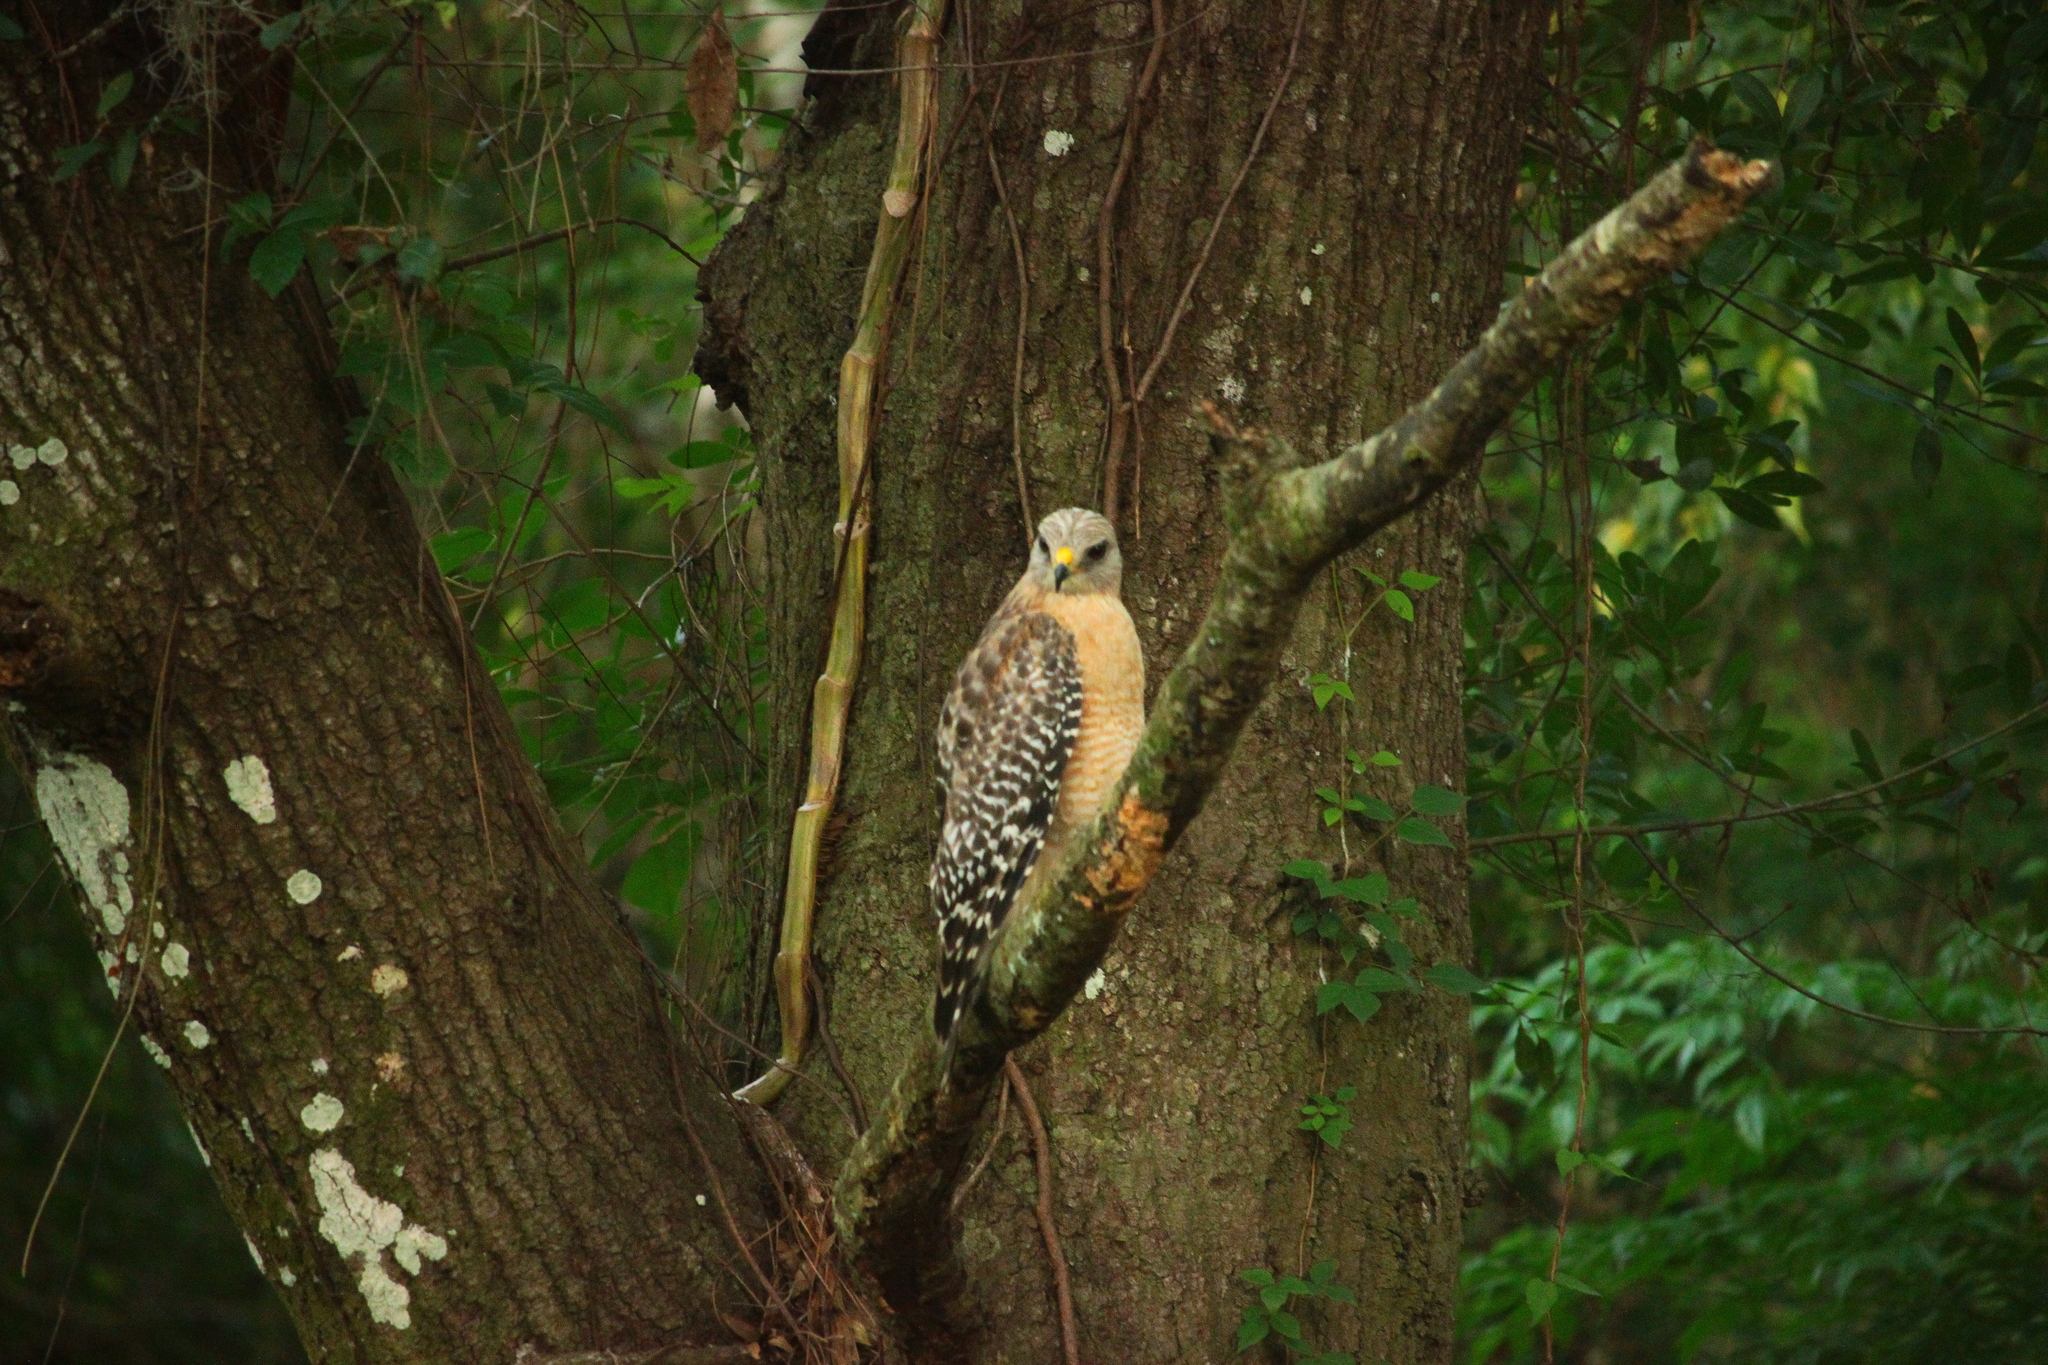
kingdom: Animalia
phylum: Chordata
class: Aves
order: Accipitriformes
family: Accipitridae
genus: Buteo
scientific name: Buteo lineatus
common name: Red-shouldered hawk
